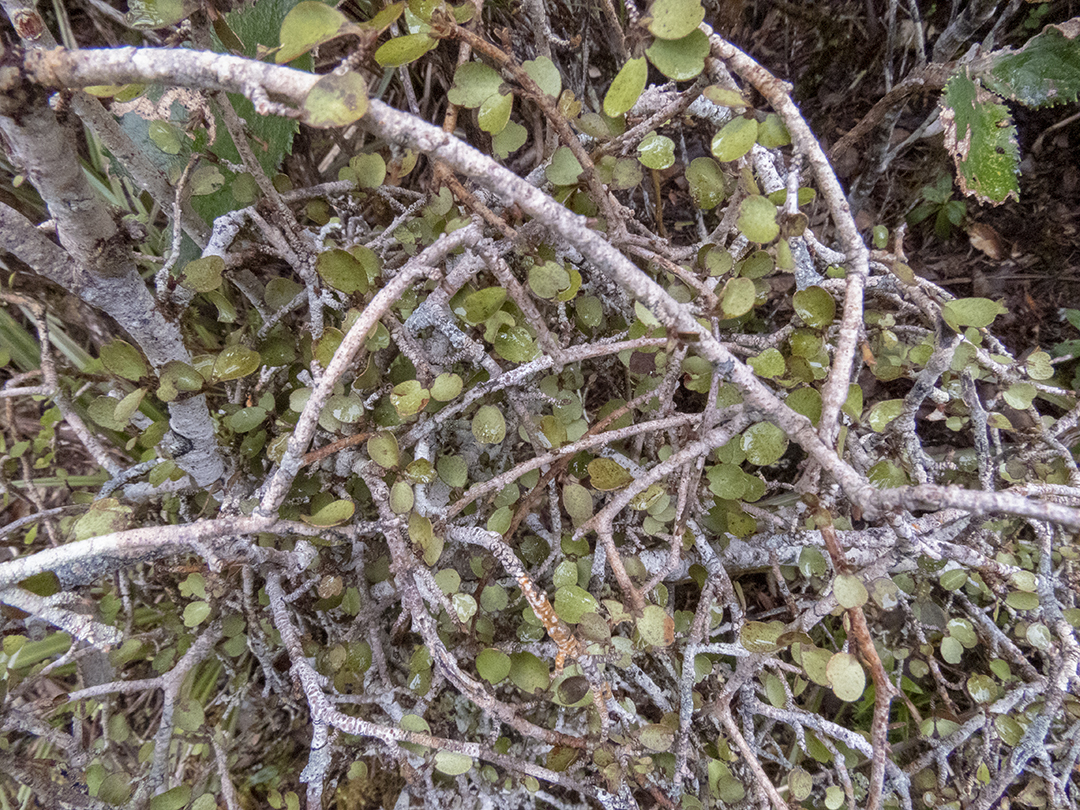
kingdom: Plantae
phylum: Tracheophyta
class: Magnoliopsida
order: Ericales
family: Primulaceae
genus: Myrsine
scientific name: Myrsine divaricata
